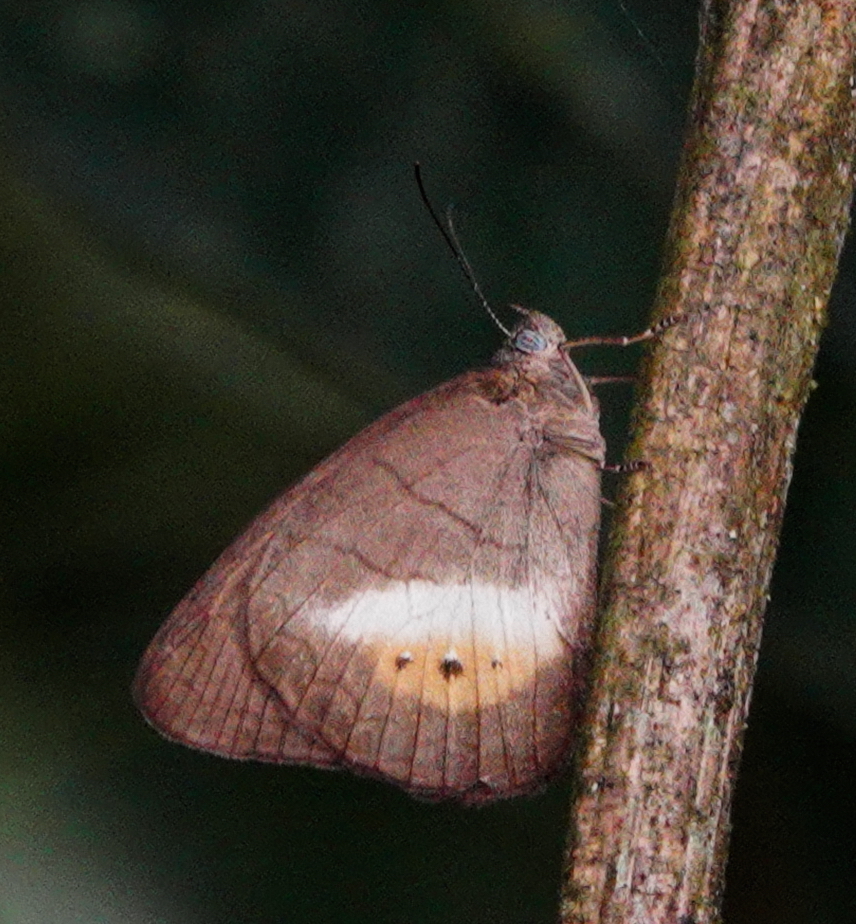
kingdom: Animalia
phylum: Arthropoda
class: Insecta
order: Lepidoptera
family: Nymphalidae
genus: Zischkaia
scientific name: Zischkaia
